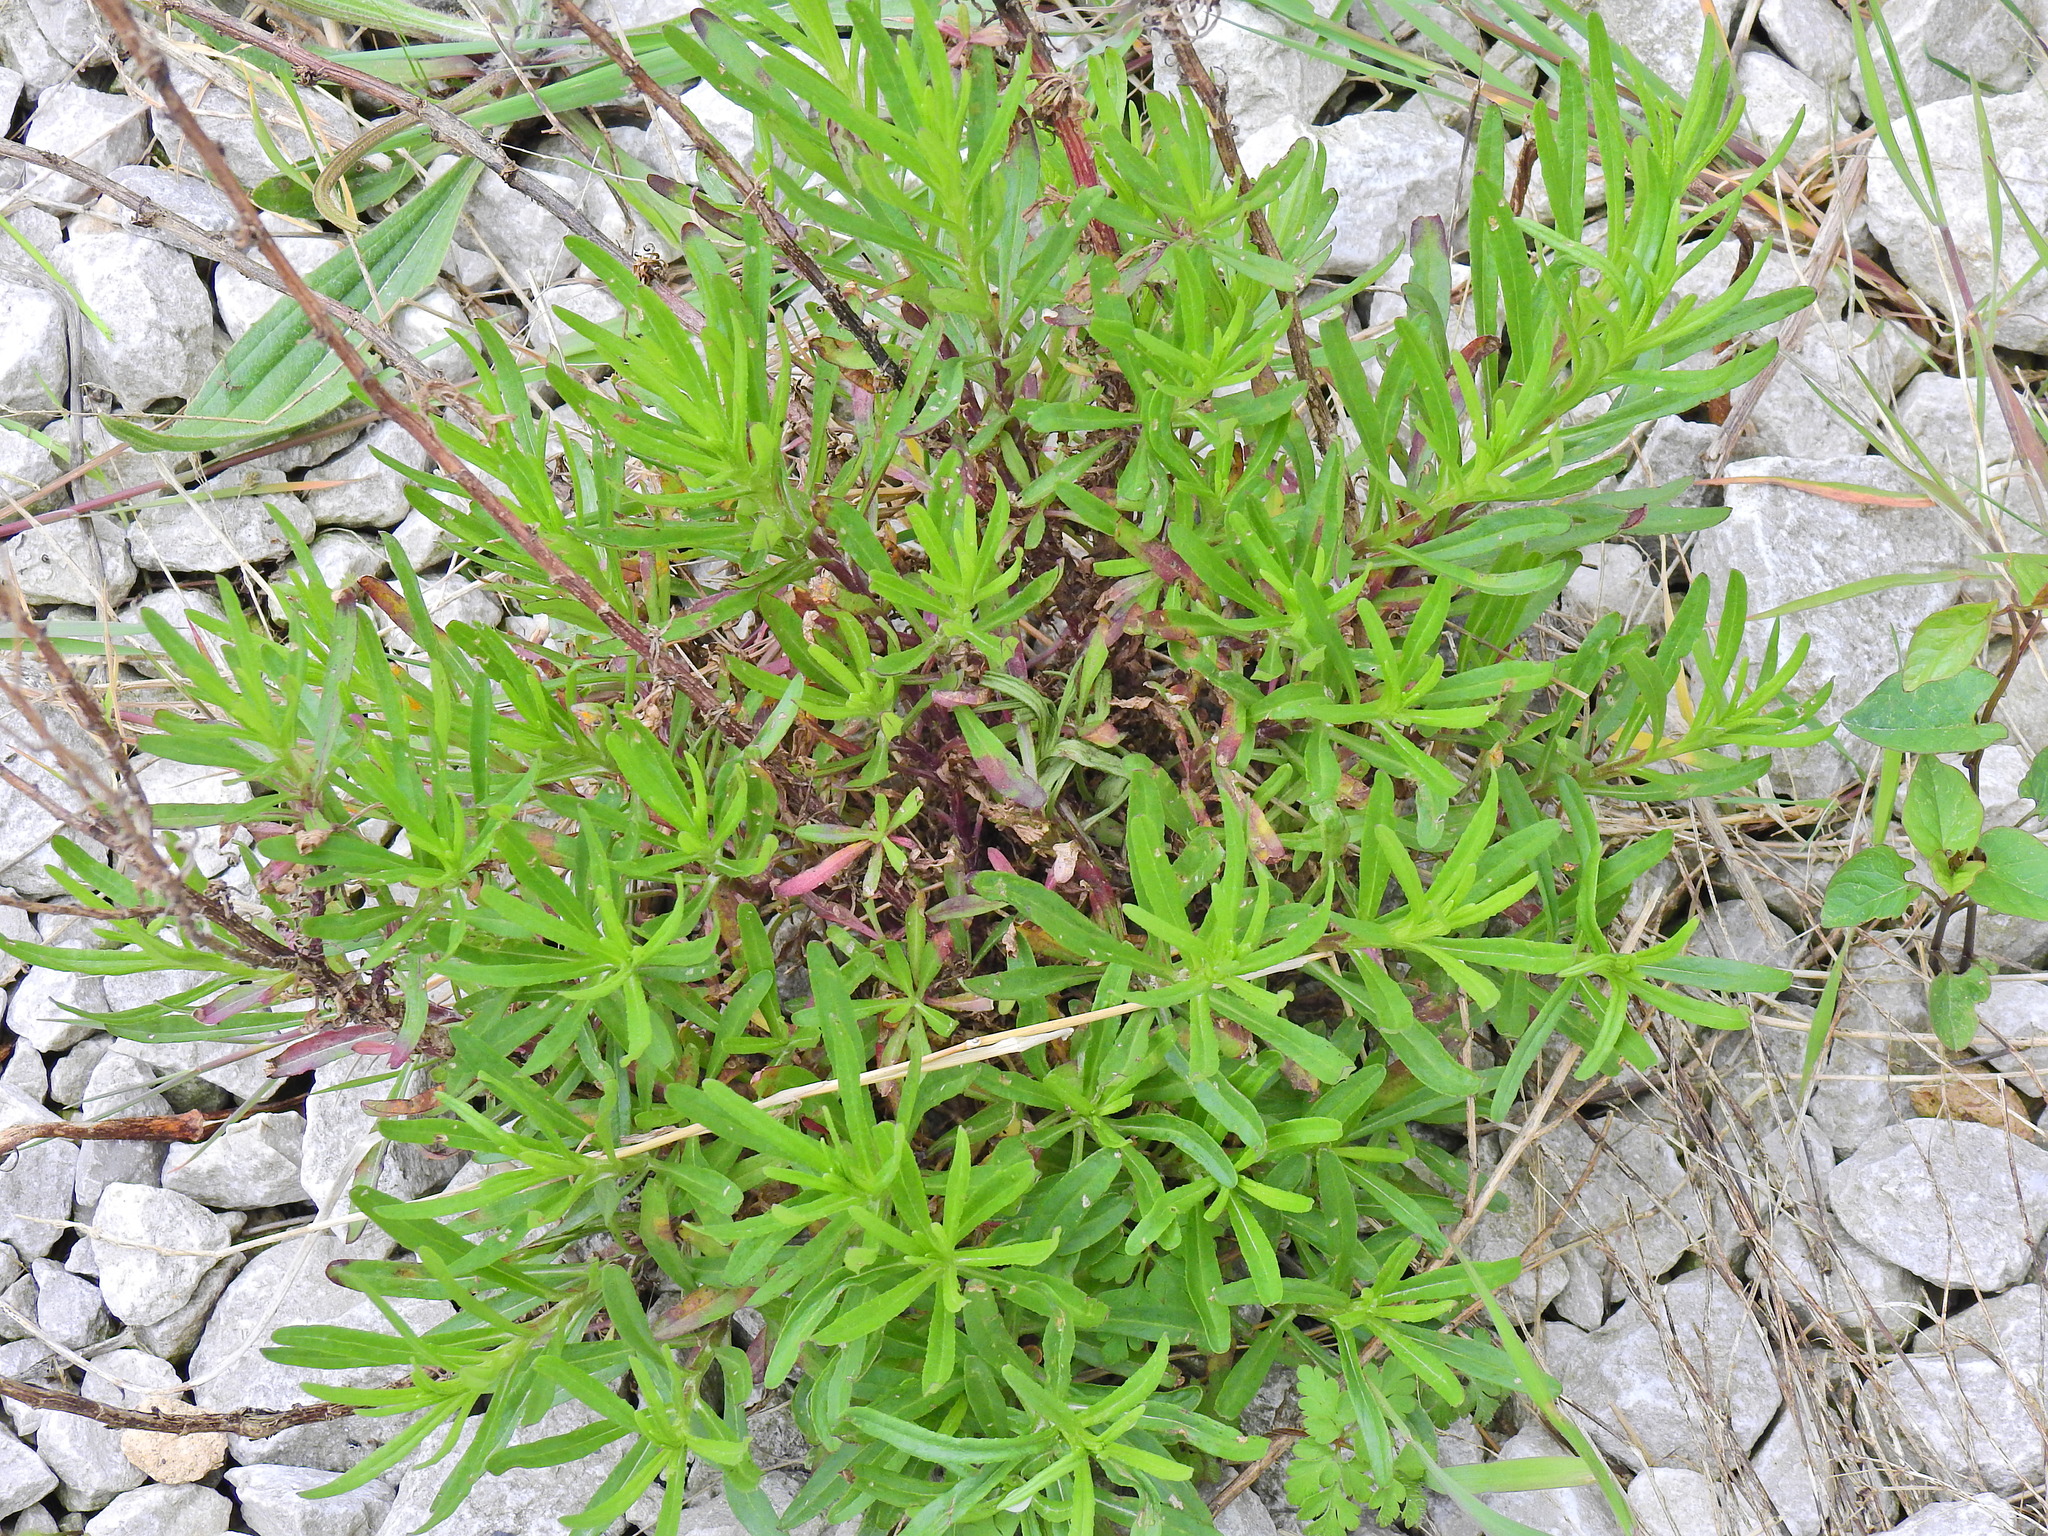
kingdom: Plantae
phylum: Tracheophyta
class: Magnoliopsida
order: Asterales
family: Asteraceae
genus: Senecio
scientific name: Senecio inaequidens
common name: Narrow-leaved ragwort
